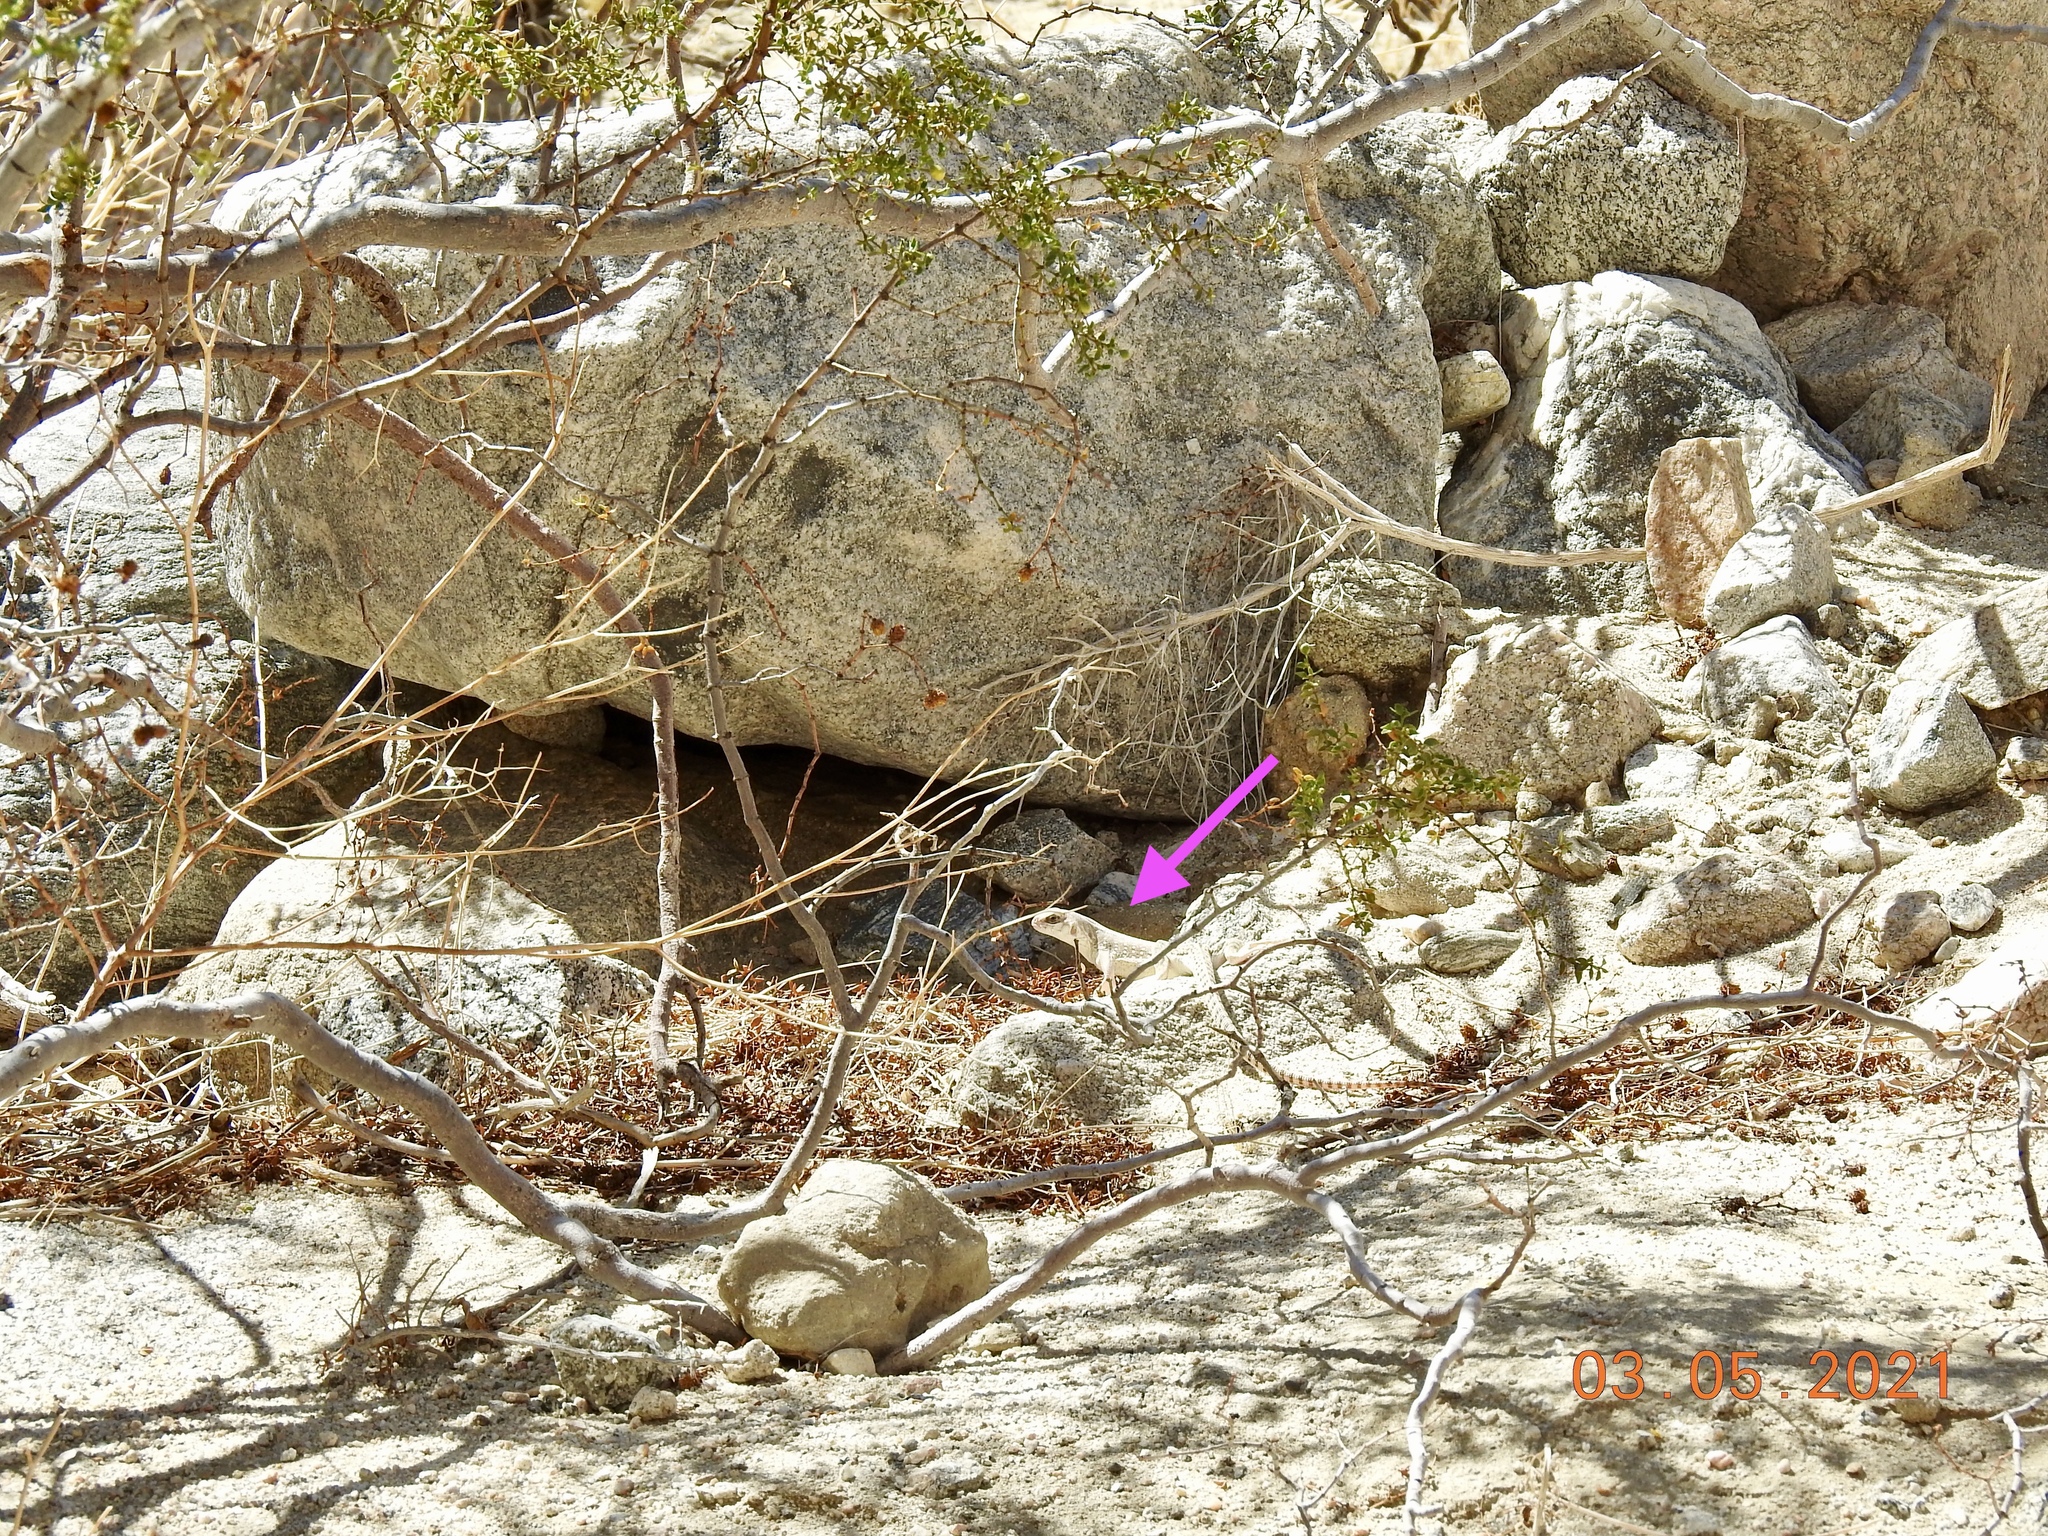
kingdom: Animalia
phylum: Chordata
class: Squamata
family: Iguanidae
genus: Dipsosaurus
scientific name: Dipsosaurus dorsalis
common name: Desert iguana
